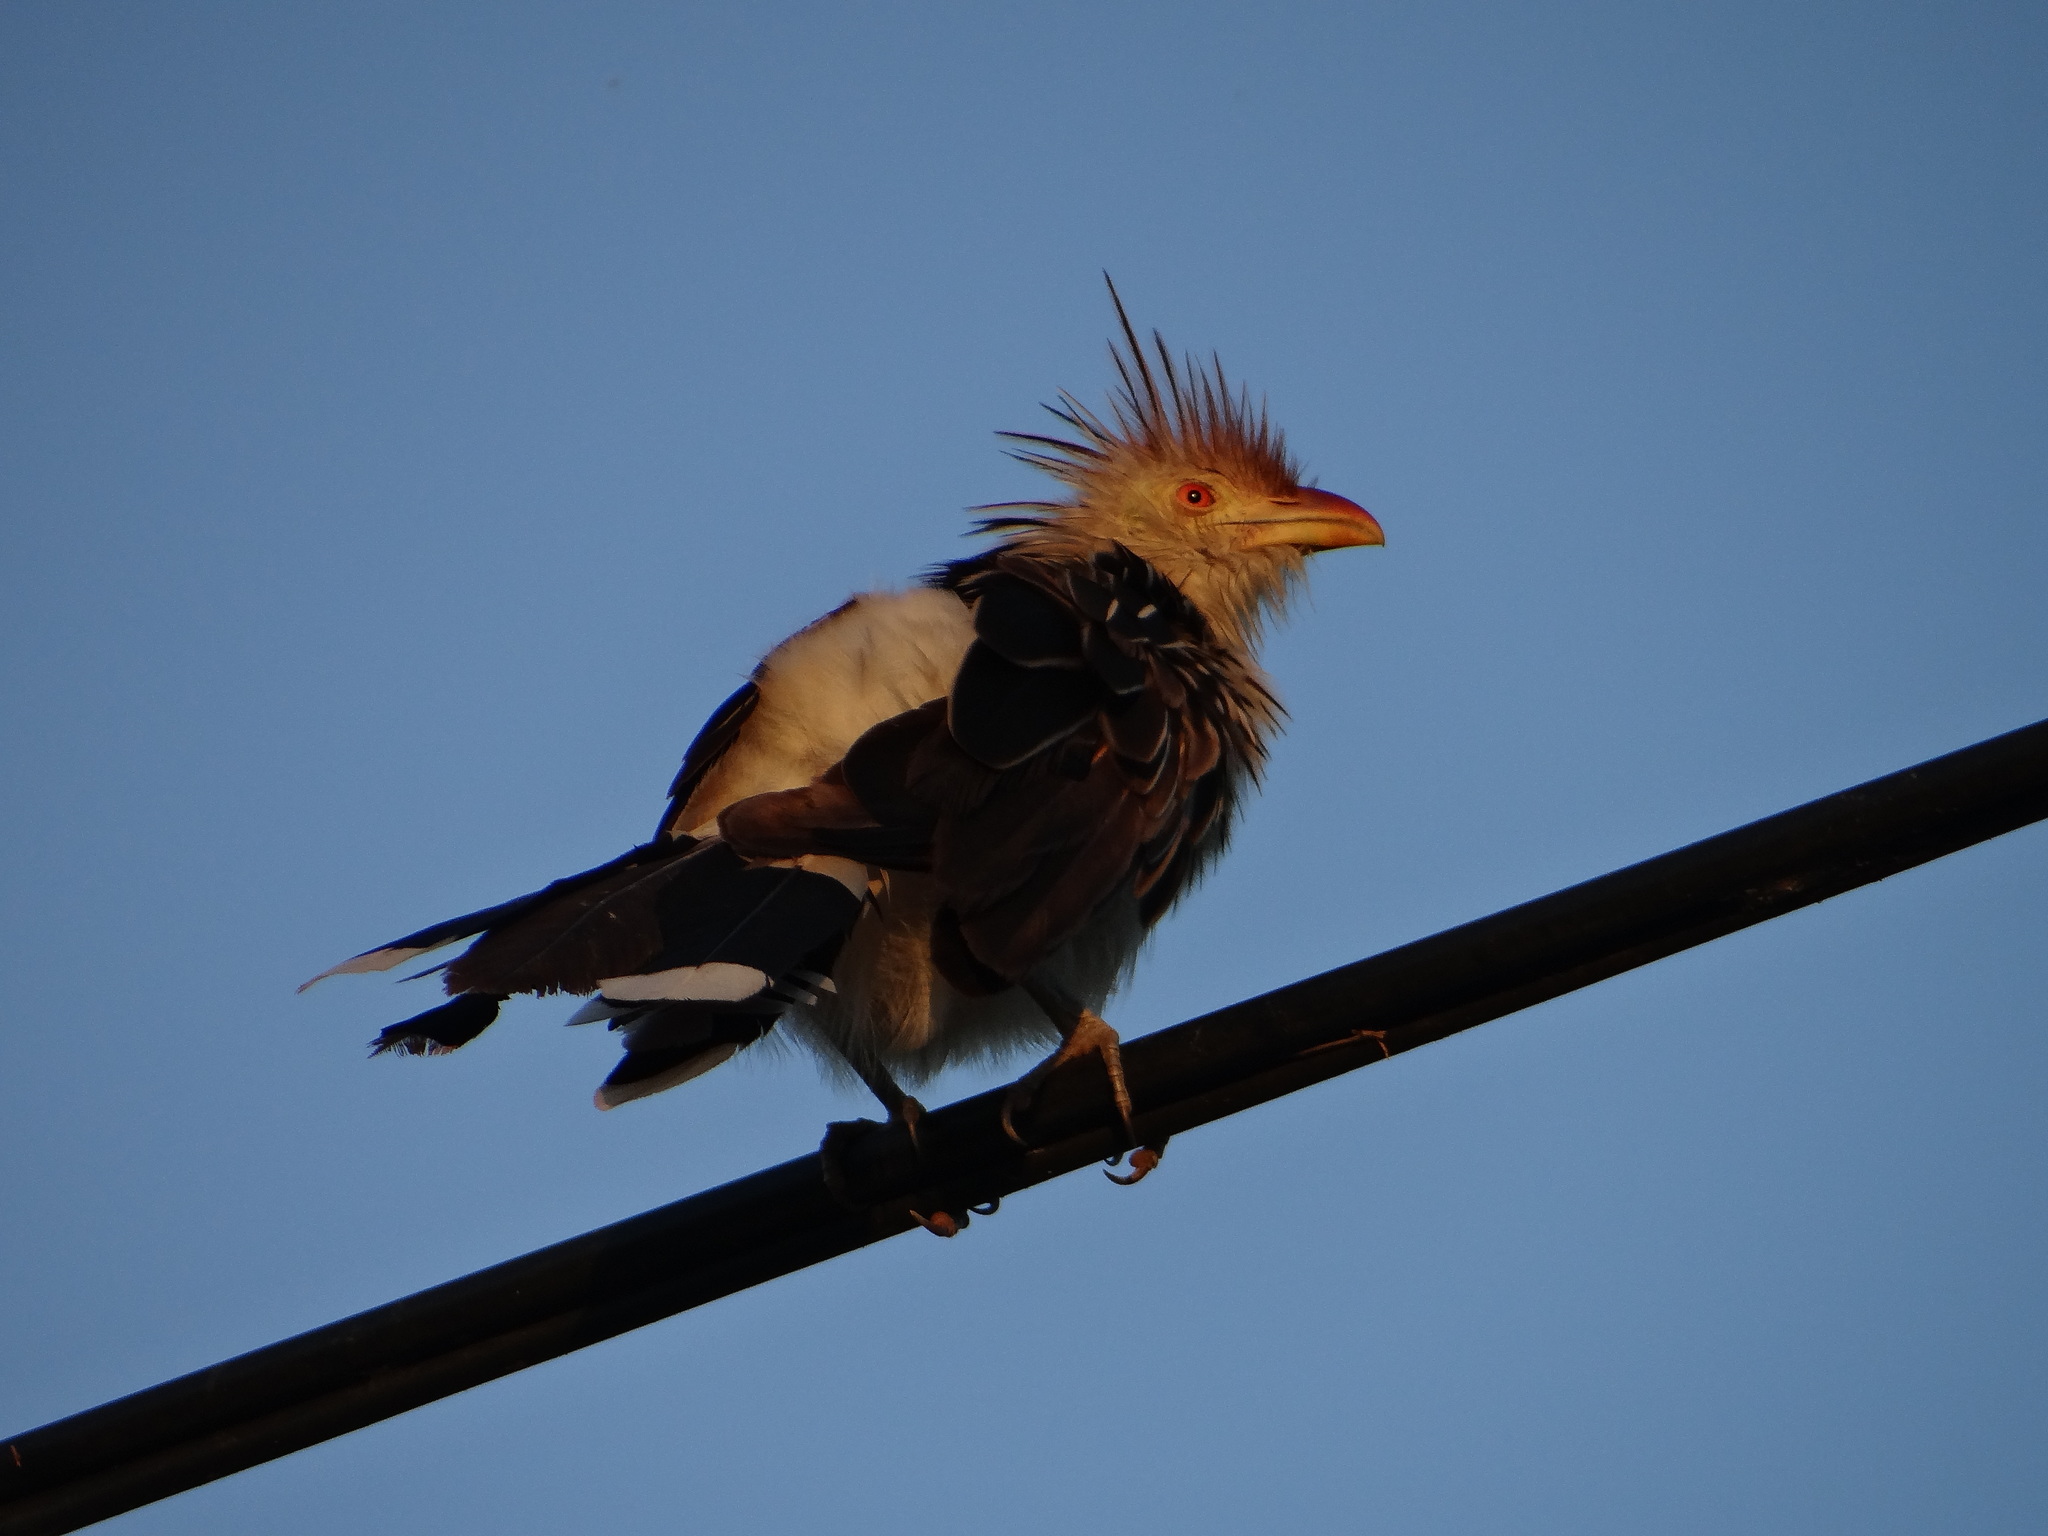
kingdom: Animalia
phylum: Chordata
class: Aves
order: Cuculiformes
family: Cuculidae
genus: Guira
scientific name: Guira guira
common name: Guira cuckoo
